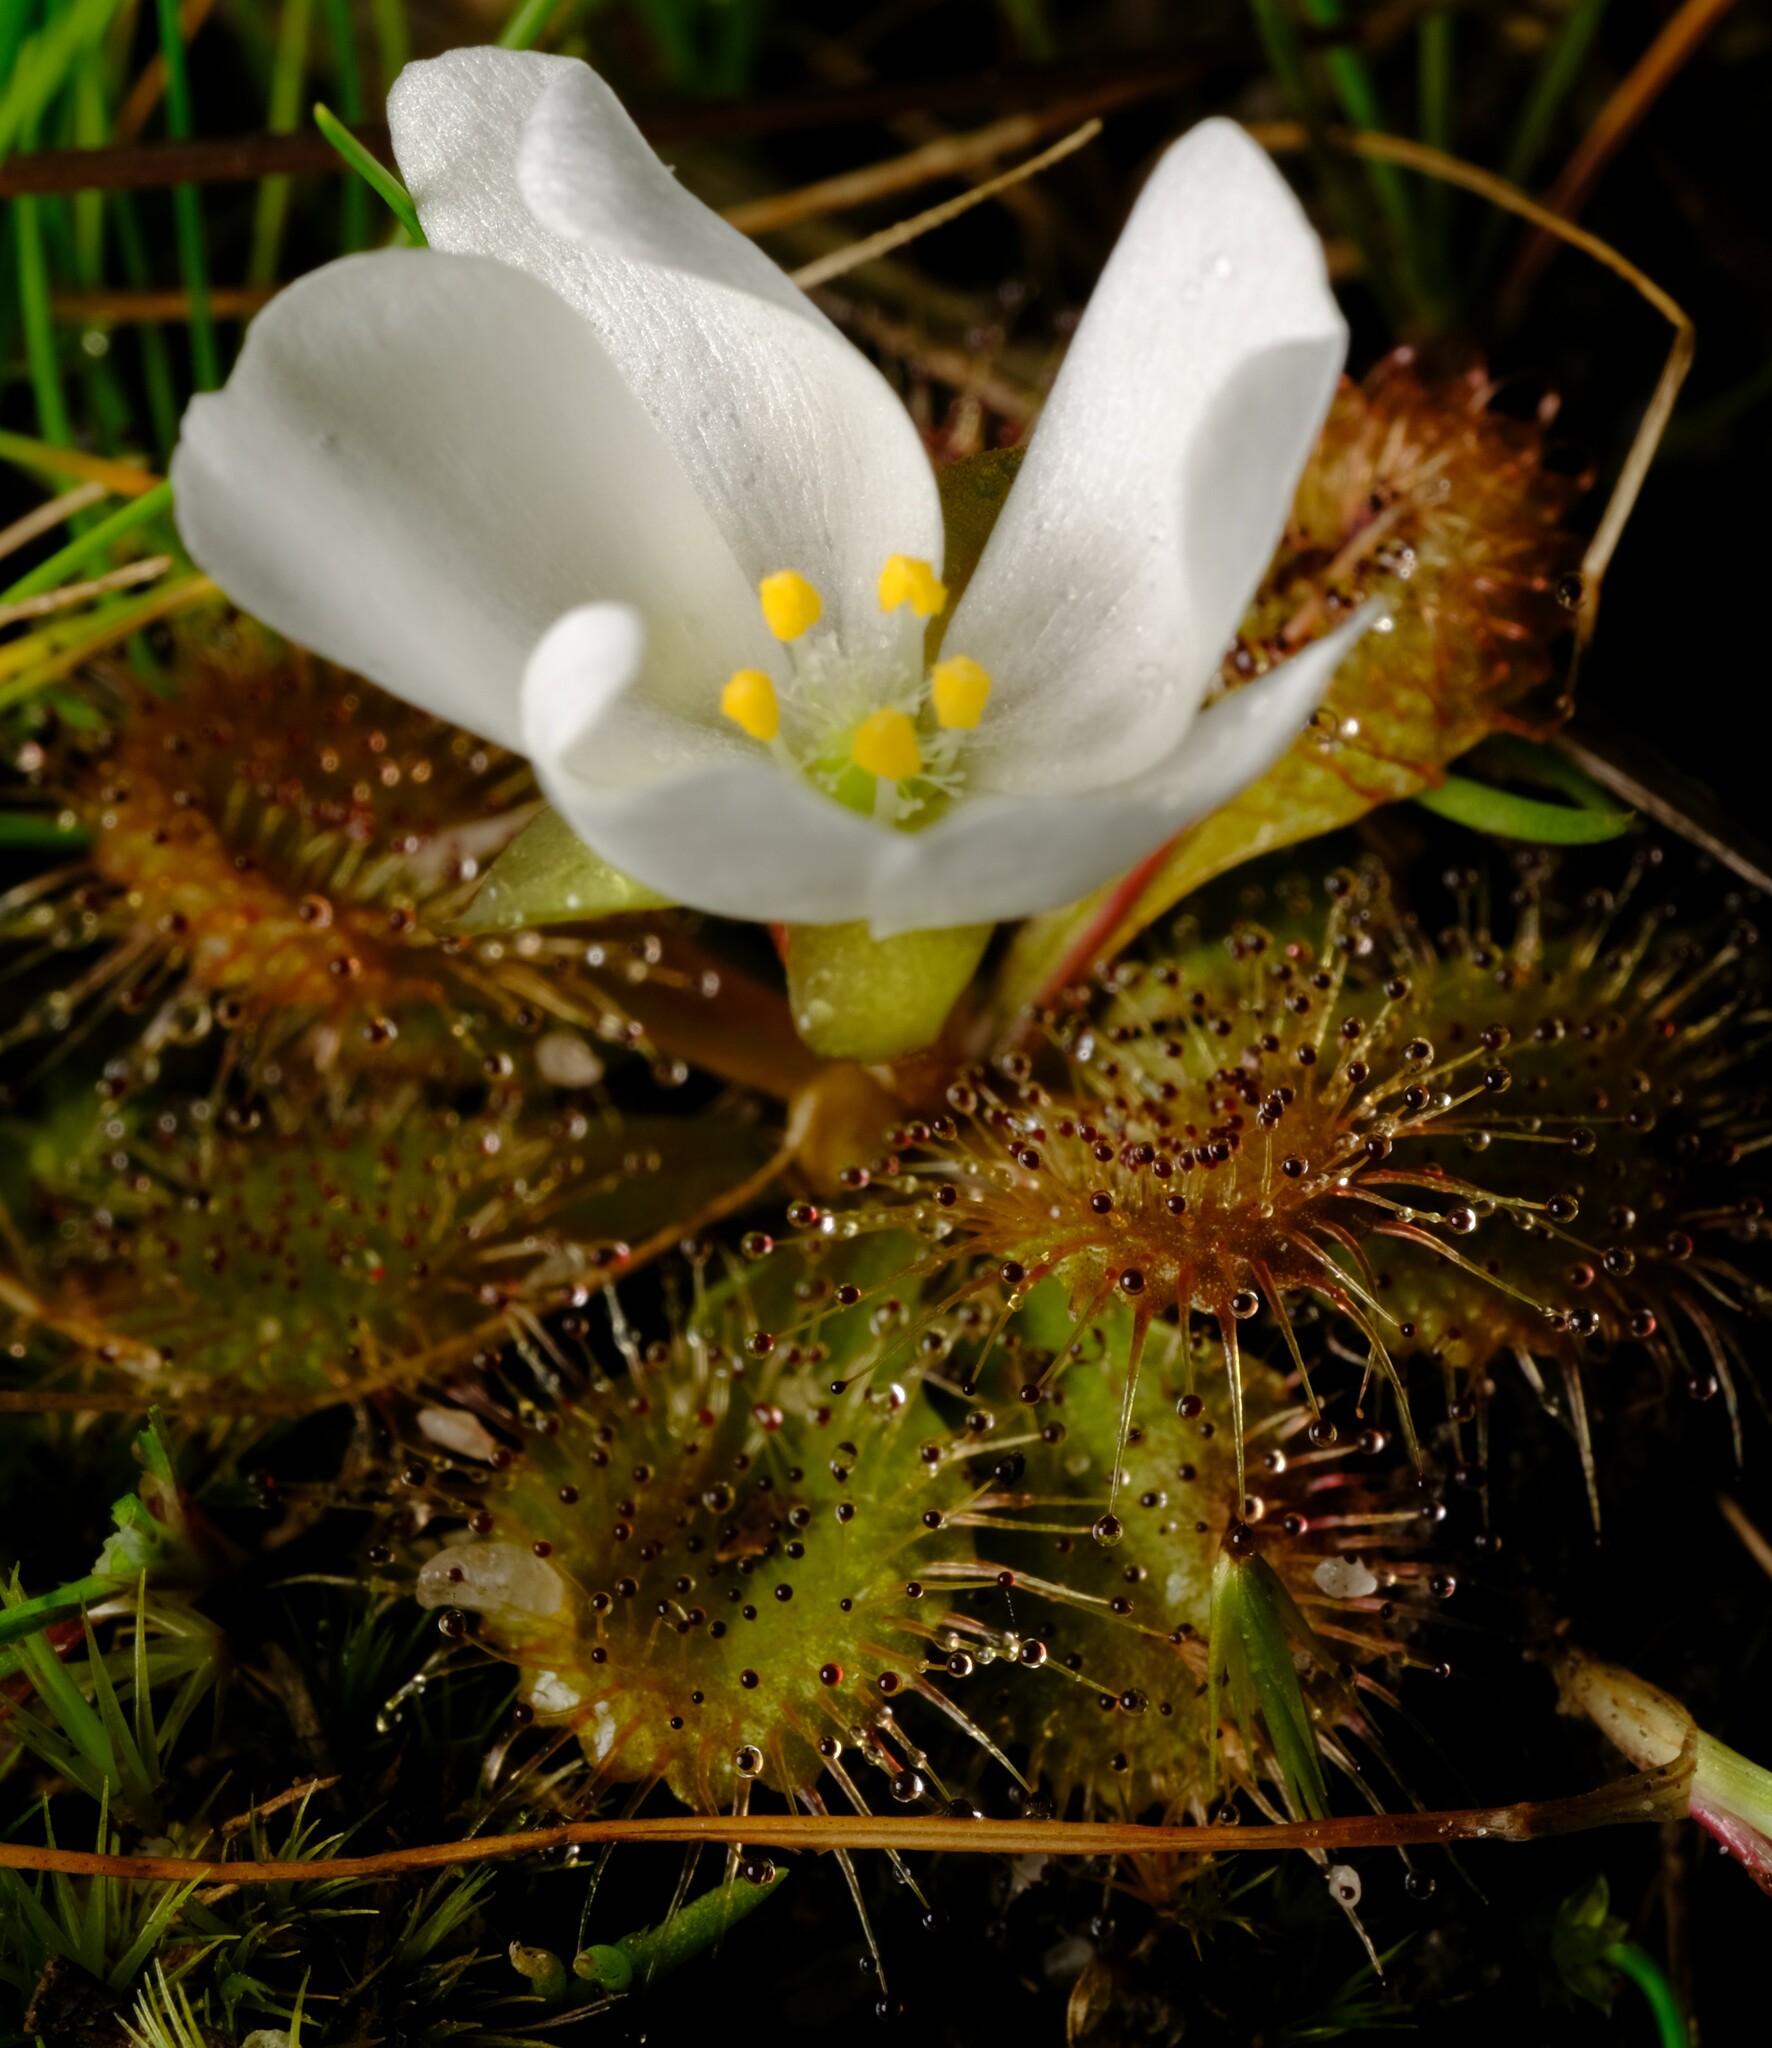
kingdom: Plantae
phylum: Tracheophyta
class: Magnoliopsida
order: Caryophyllales
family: Droseraceae
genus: Drosera
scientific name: Drosera aberrans
